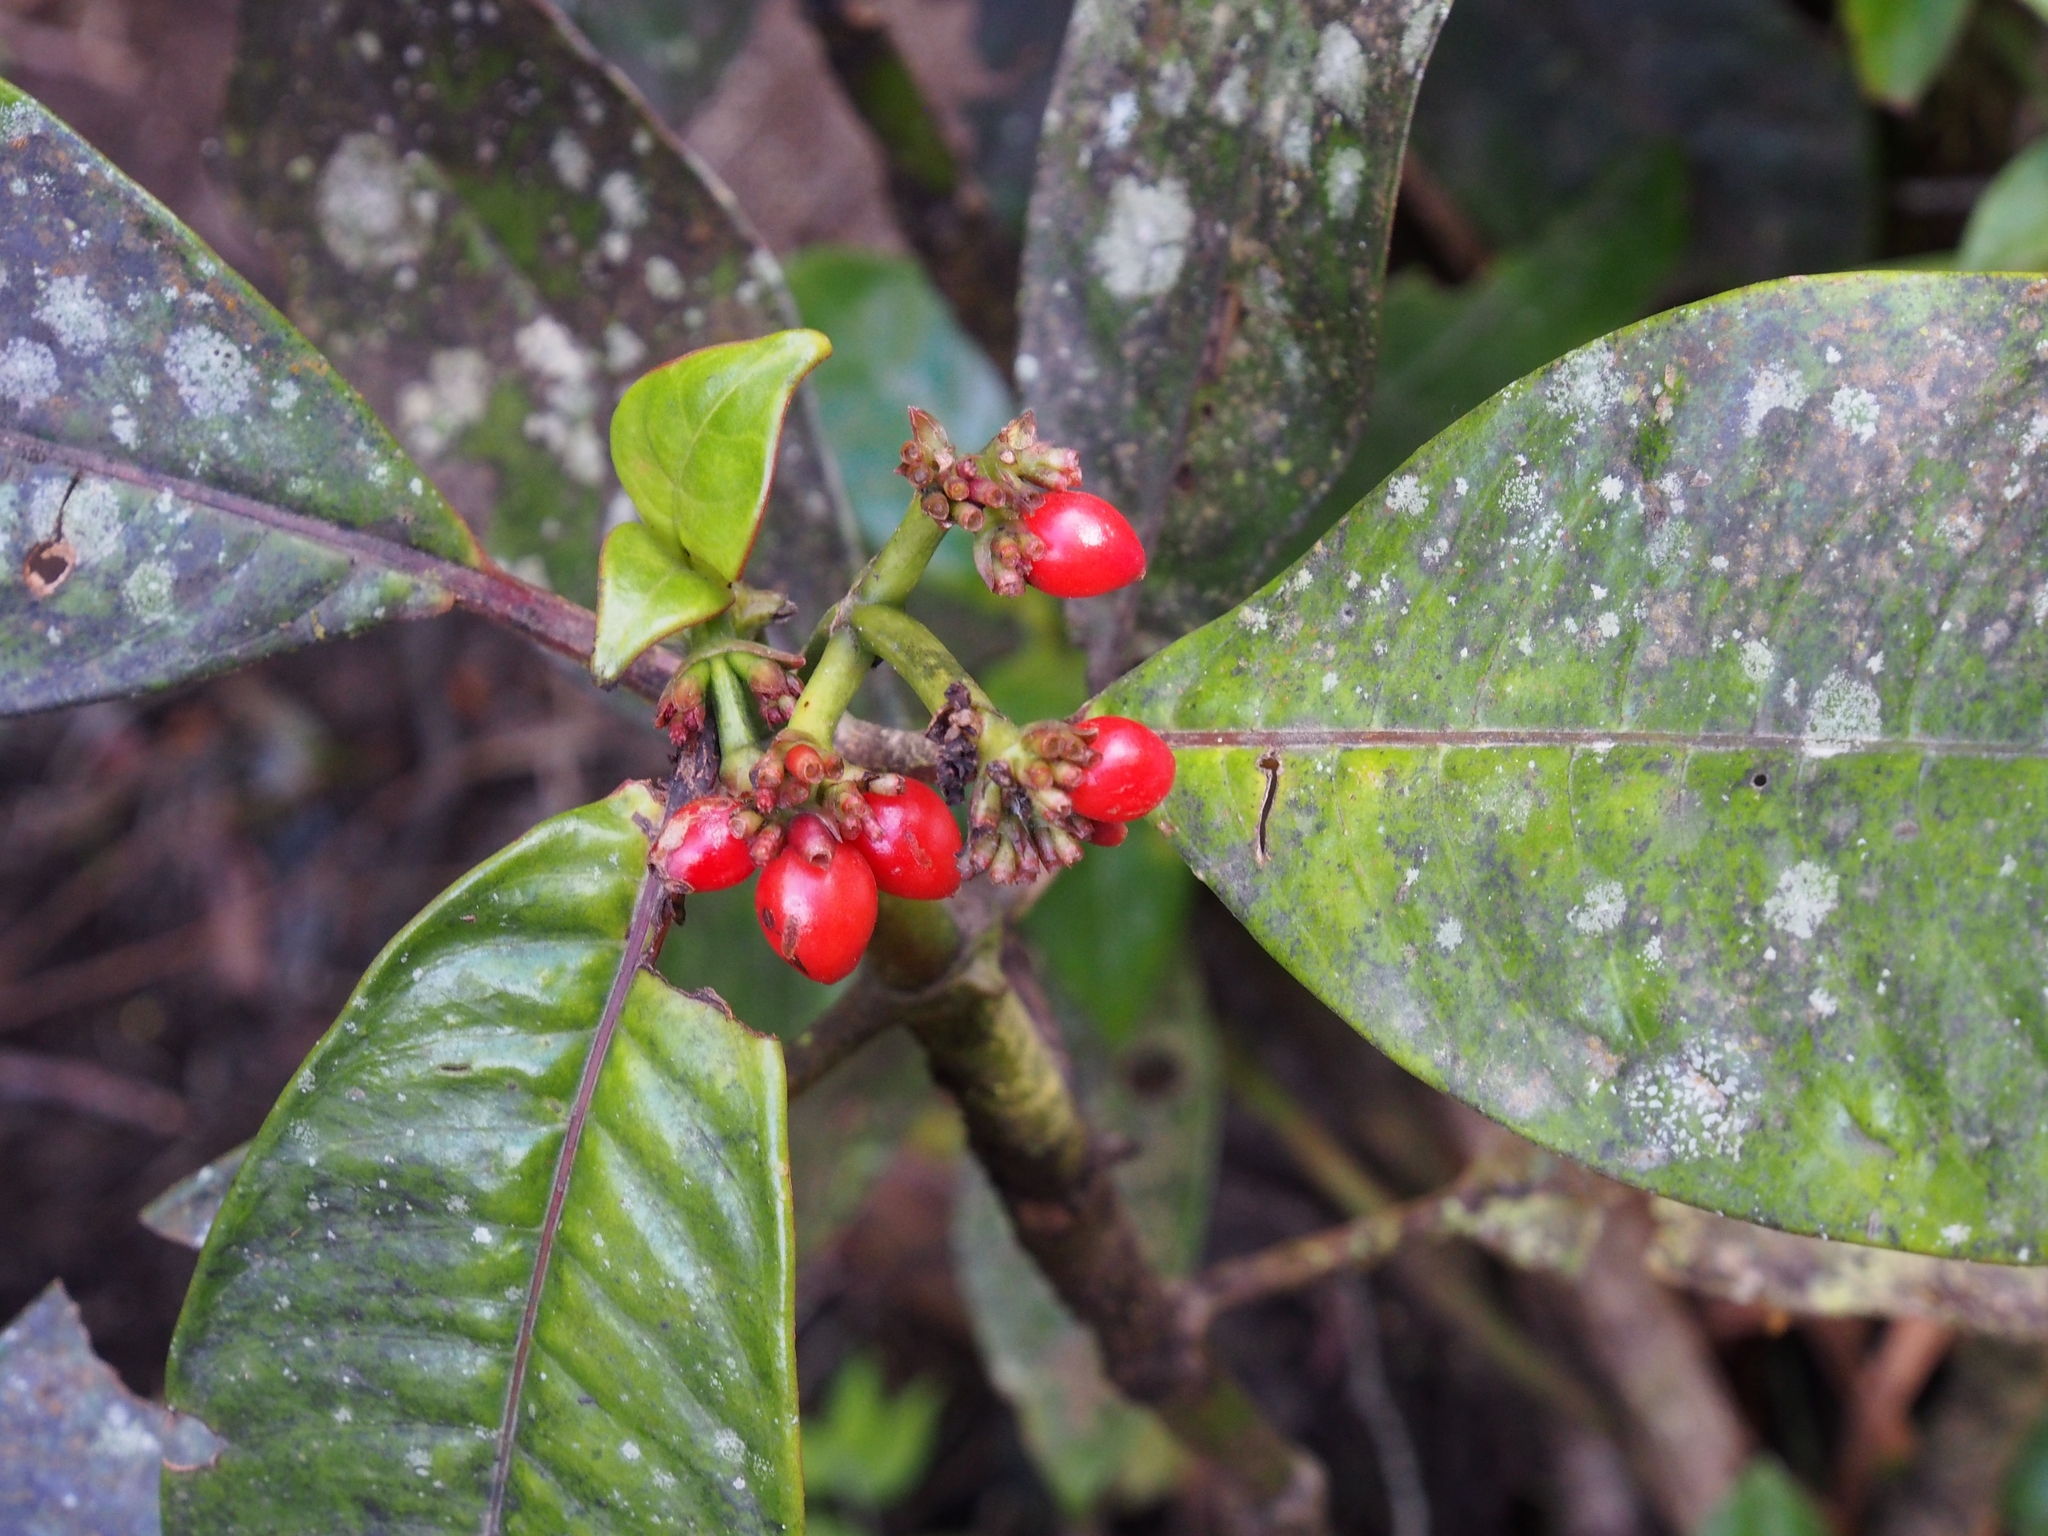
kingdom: Plantae
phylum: Tracheophyta
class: Magnoliopsida
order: Gentianales
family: Rubiaceae
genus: Notopleura
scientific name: Notopleura uliginosa
